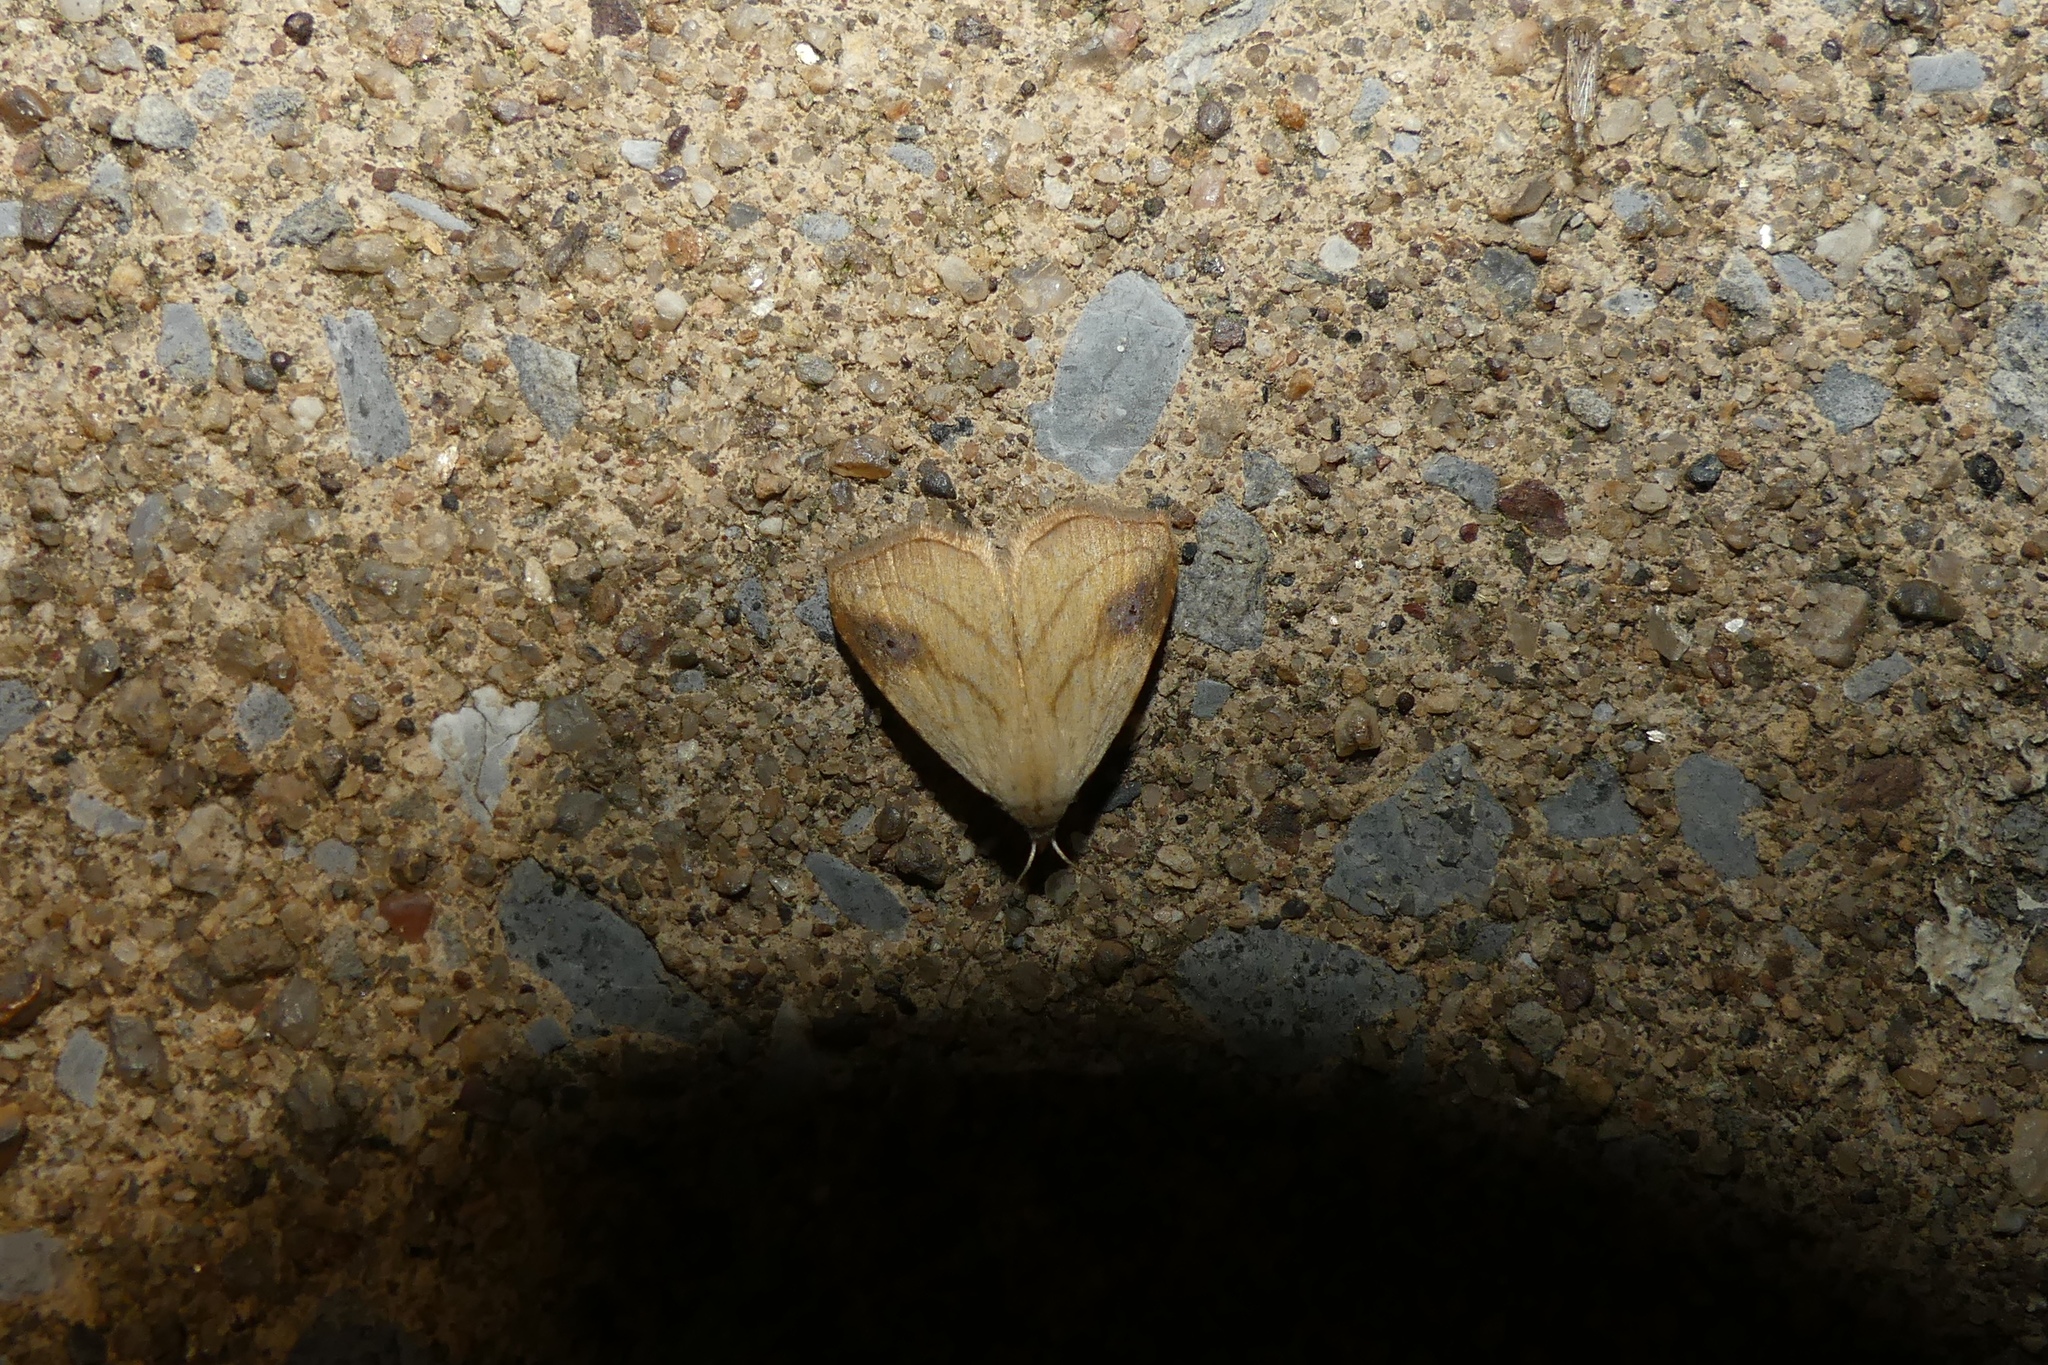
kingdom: Animalia
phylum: Arthropoda
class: Insecta
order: Lepidoptera
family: Erebidae
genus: Rivula
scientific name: Rivula propinqualis
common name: Spotted grass moth
